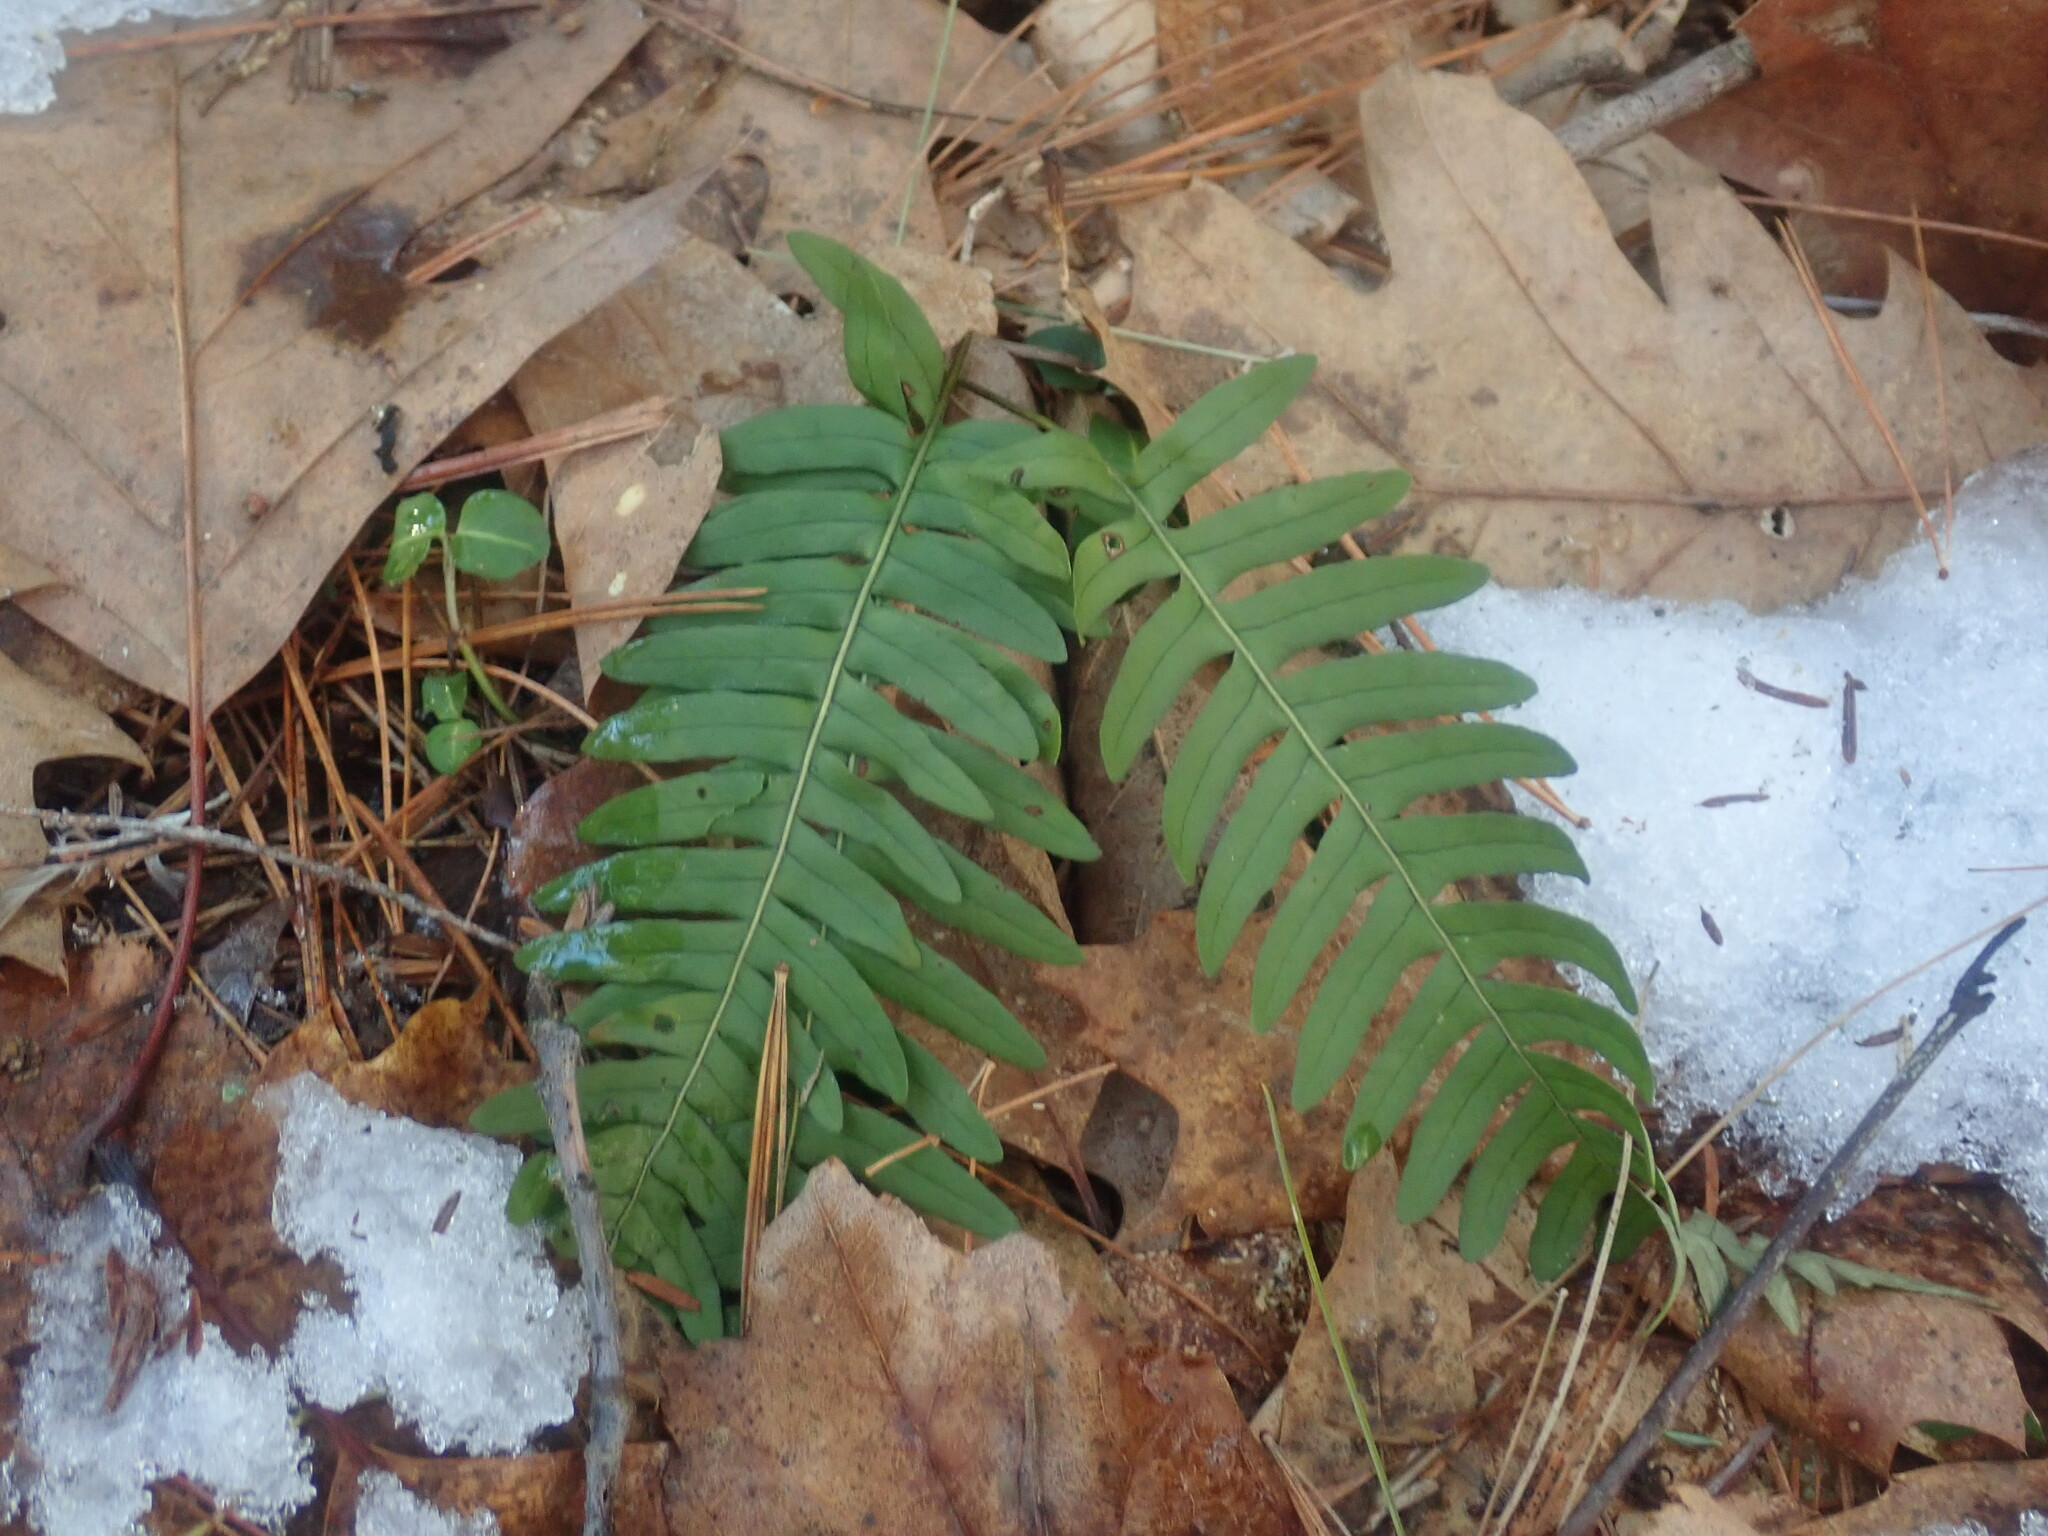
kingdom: Plantae
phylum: Tracheophyta
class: Polypodiopsida
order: Polypodiales
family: Polypodiaceae
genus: Polypodium
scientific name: Polypodium
